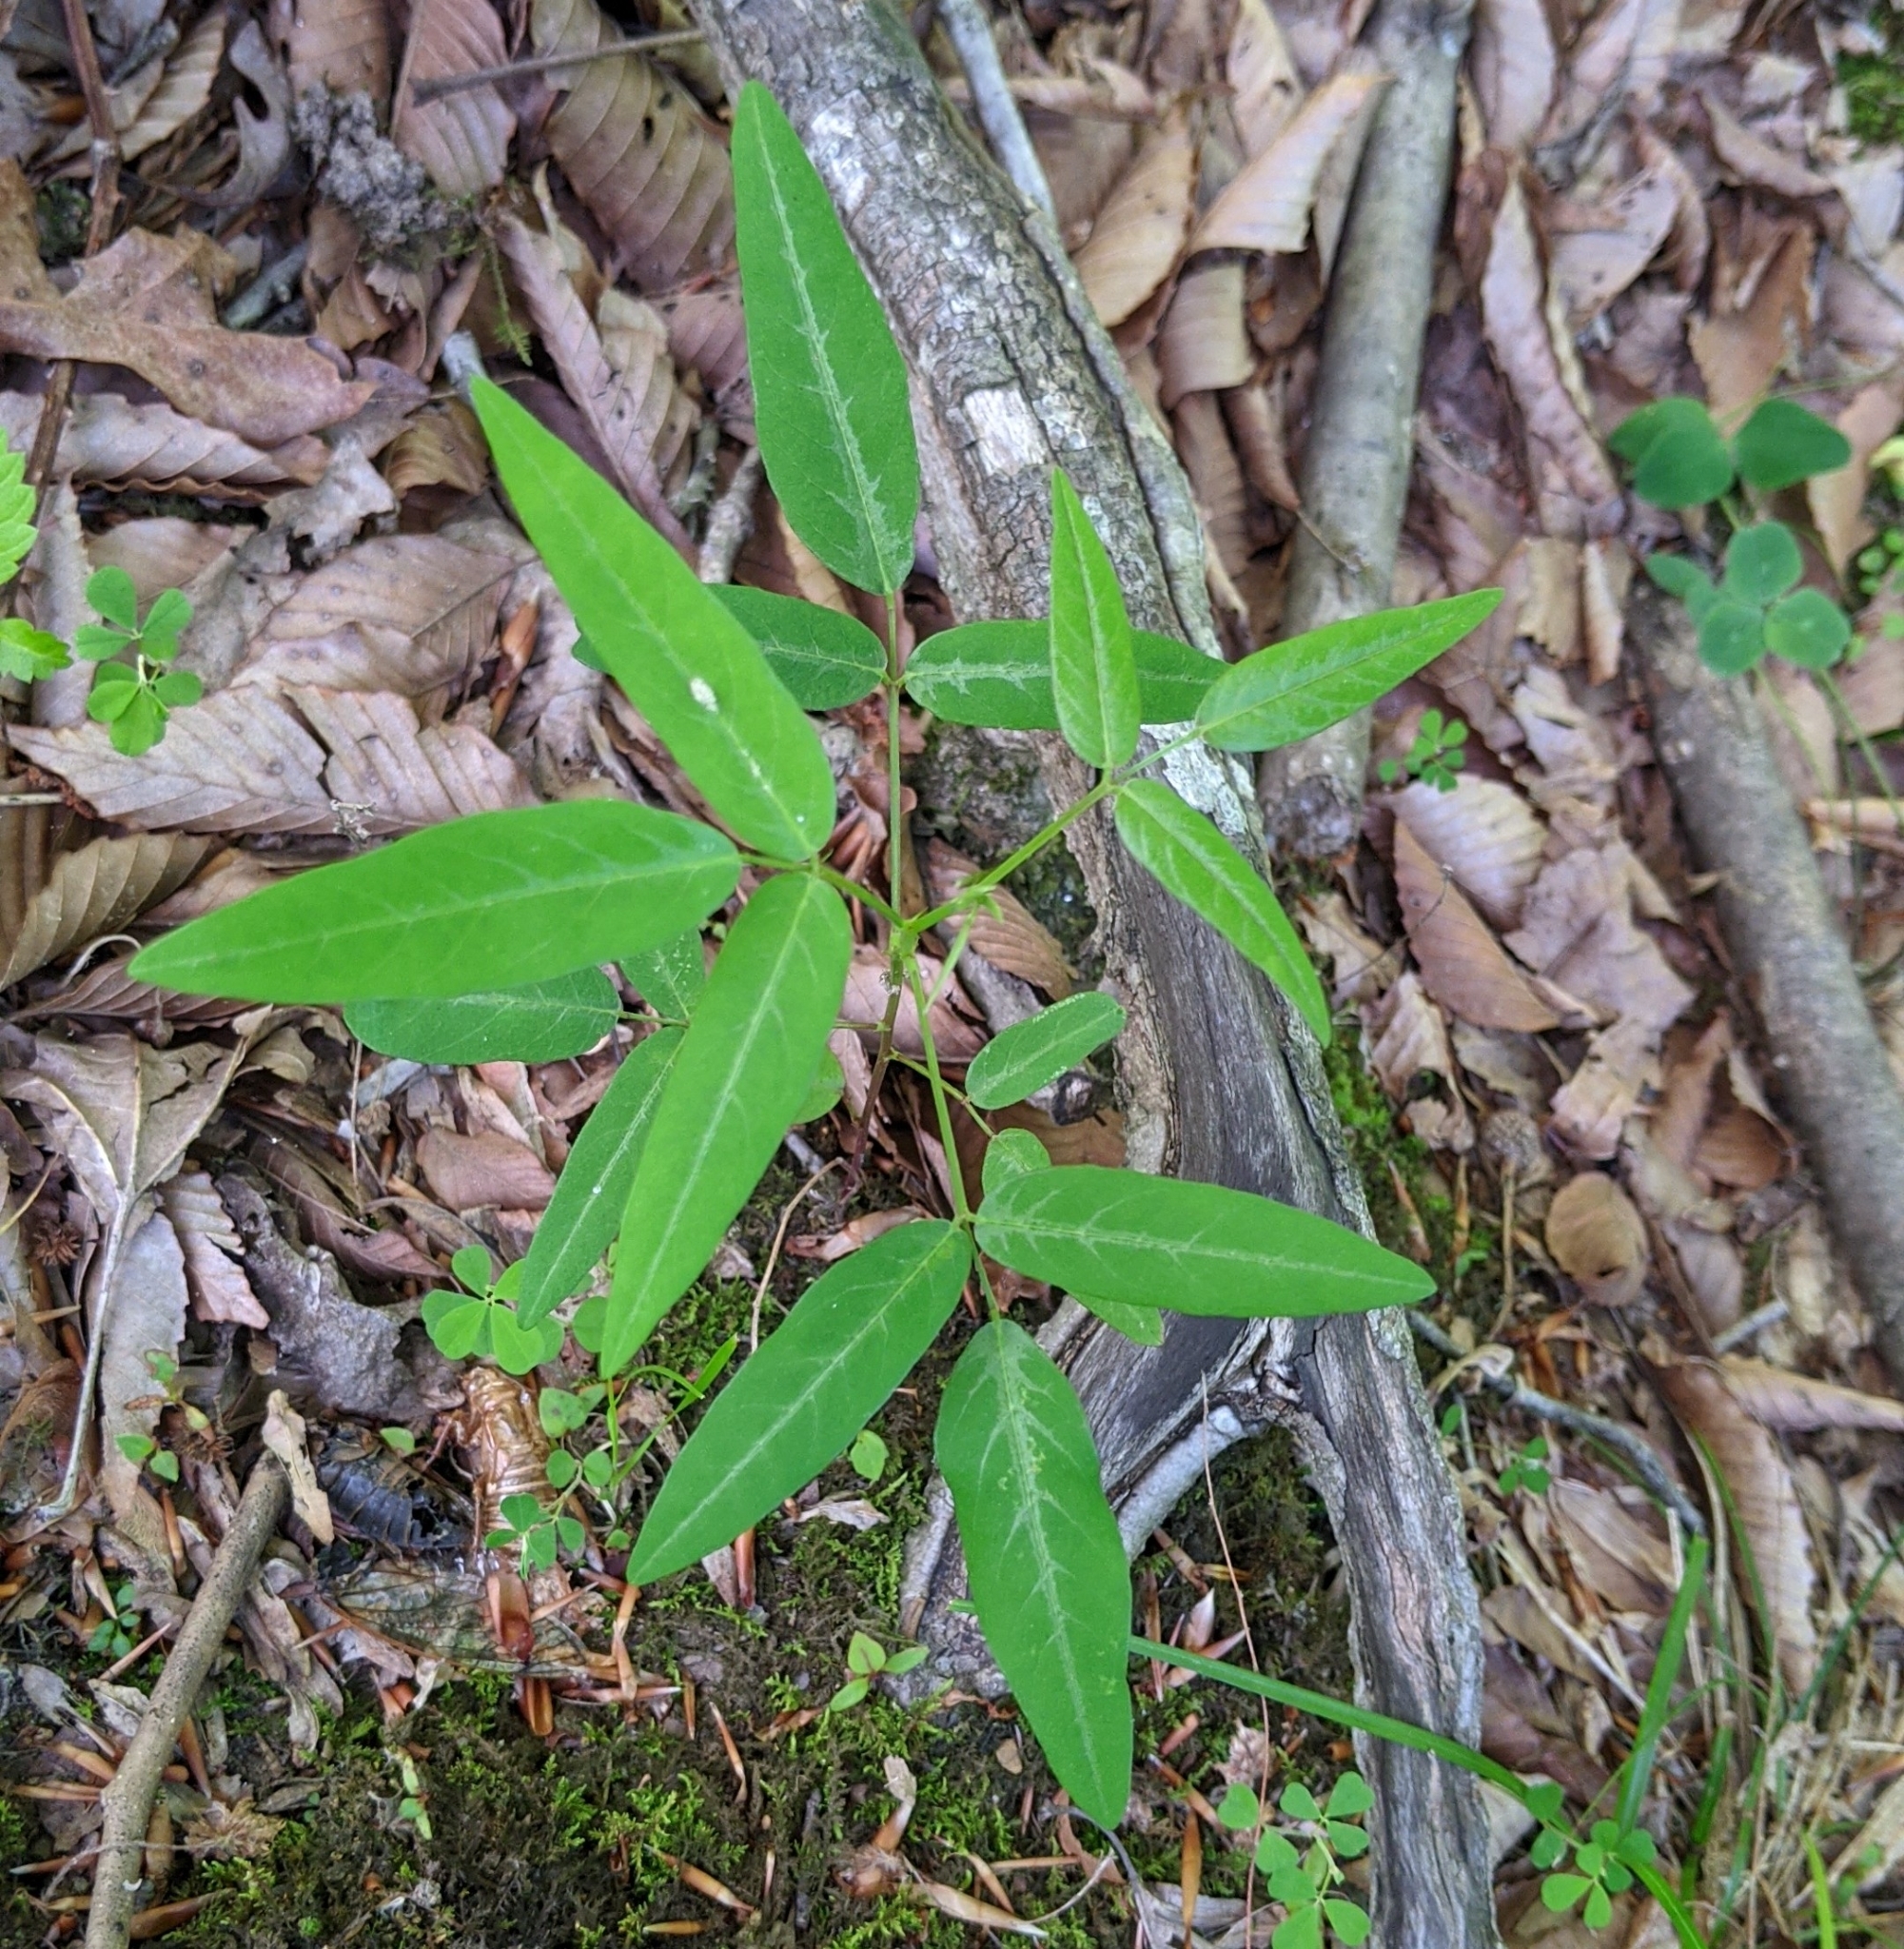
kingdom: Plantae
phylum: Tracheophyta
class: Magnoliopsida
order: Fabales
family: Fabaceae
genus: Desmodium
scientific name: Desmodium paniculatum
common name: Panicled tick-clover
